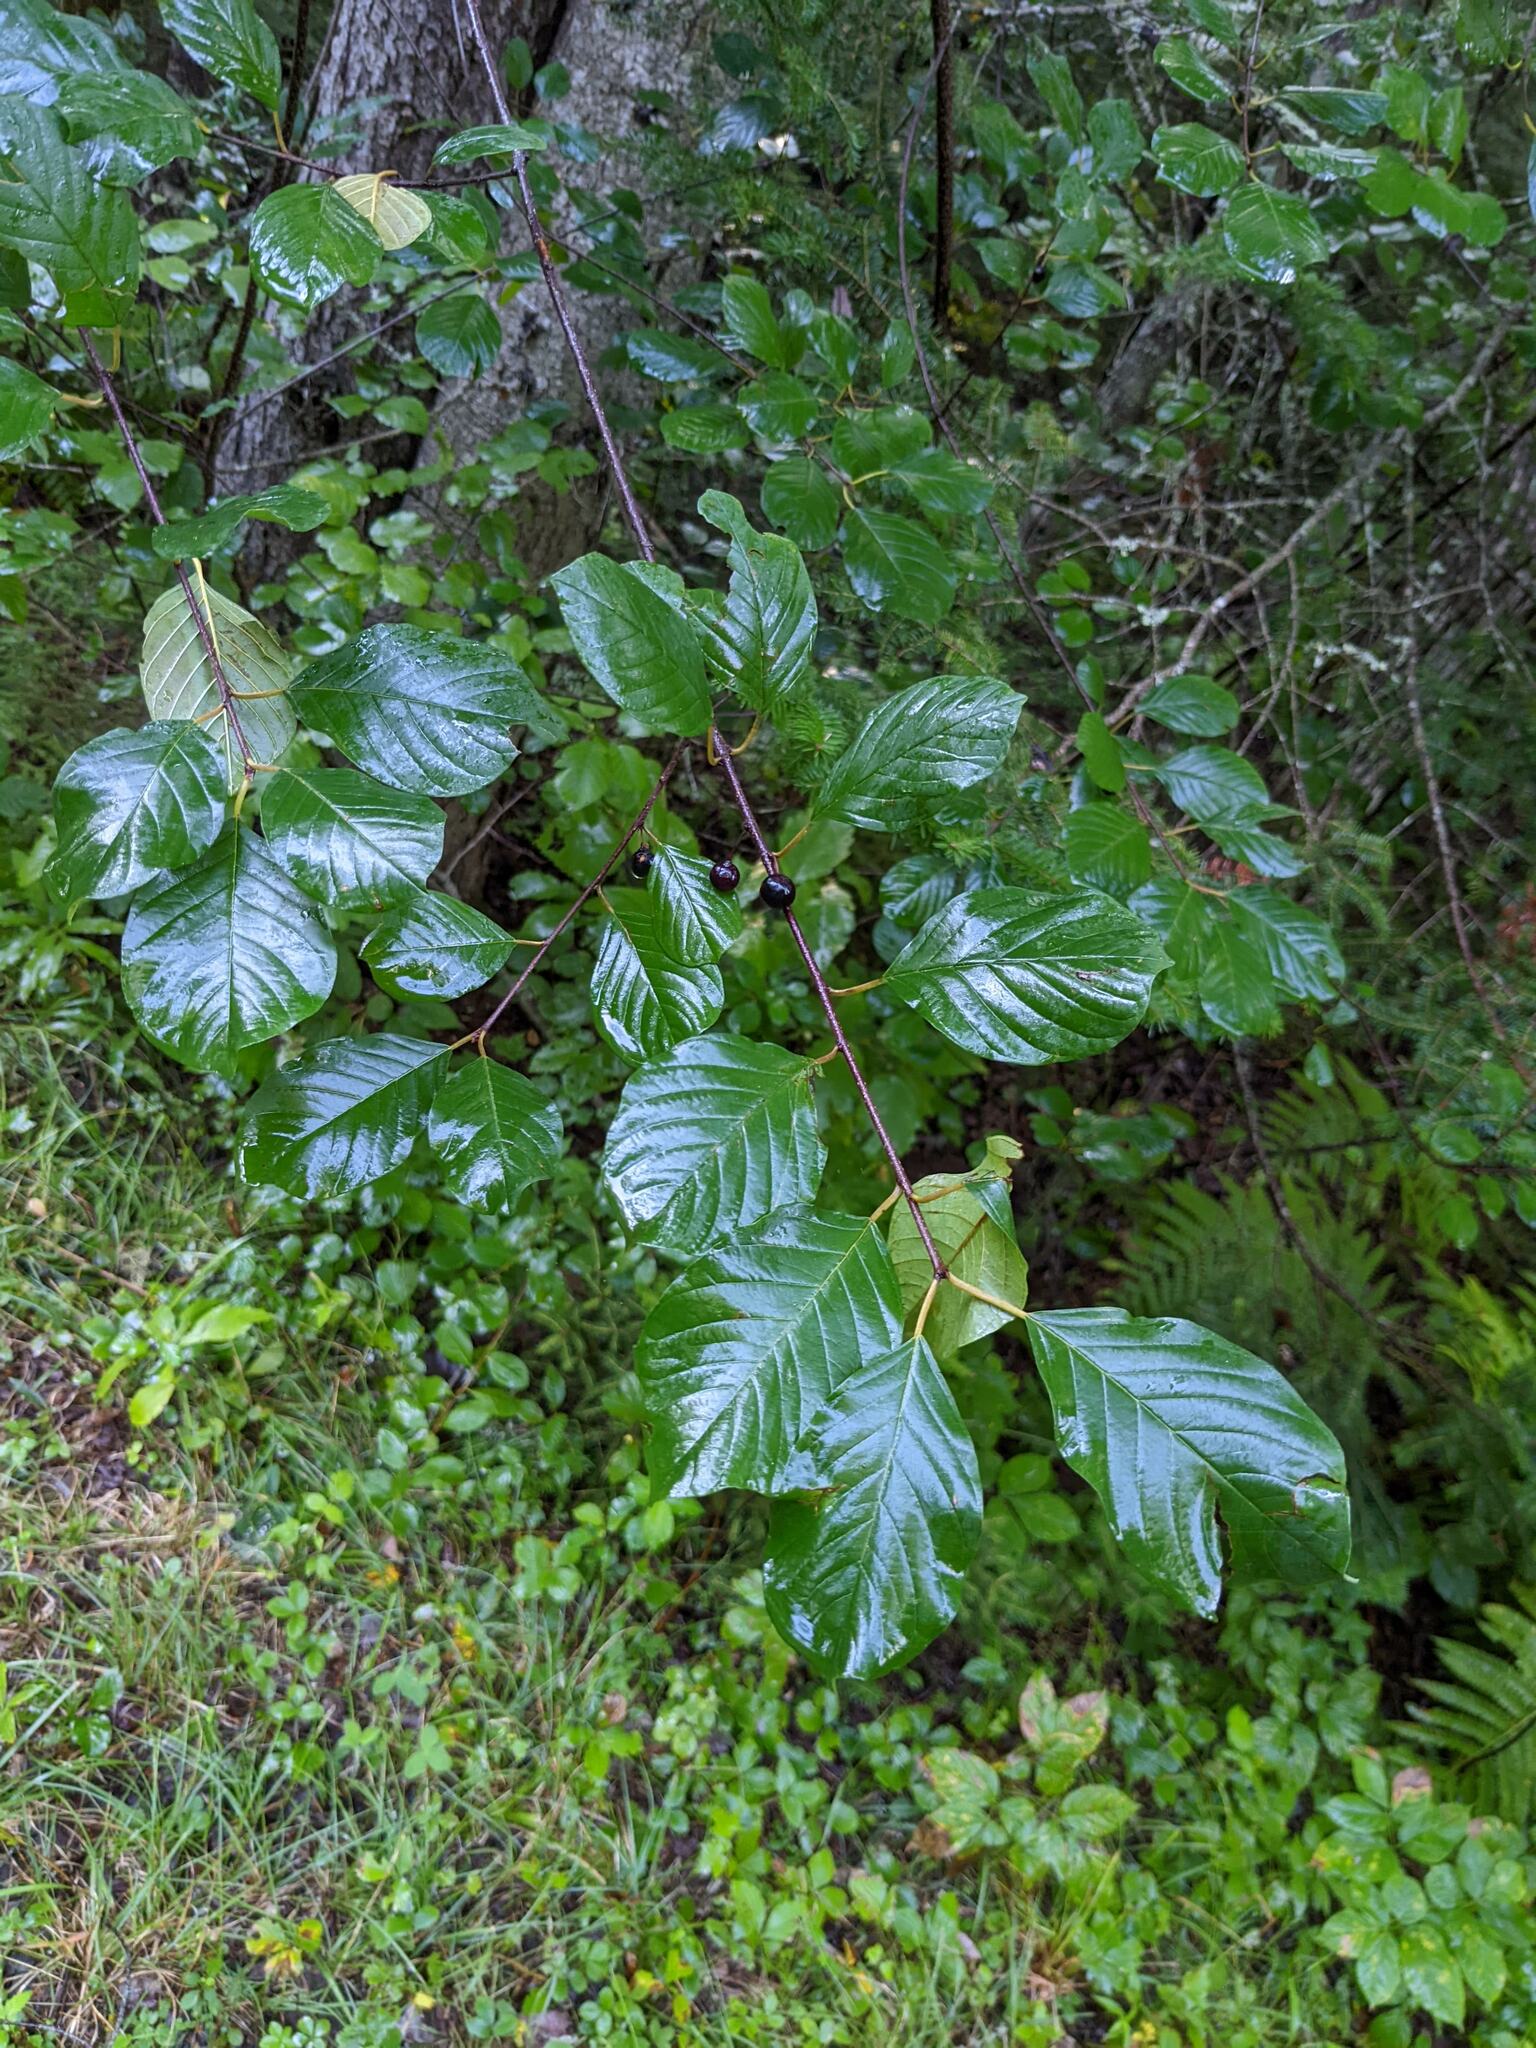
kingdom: Plantae
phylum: Tracheophyta
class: Magnoliopsida
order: Rosales
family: Rhamnaceae
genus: Frangula
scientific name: Frangula alnus
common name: Alder buckthorn
